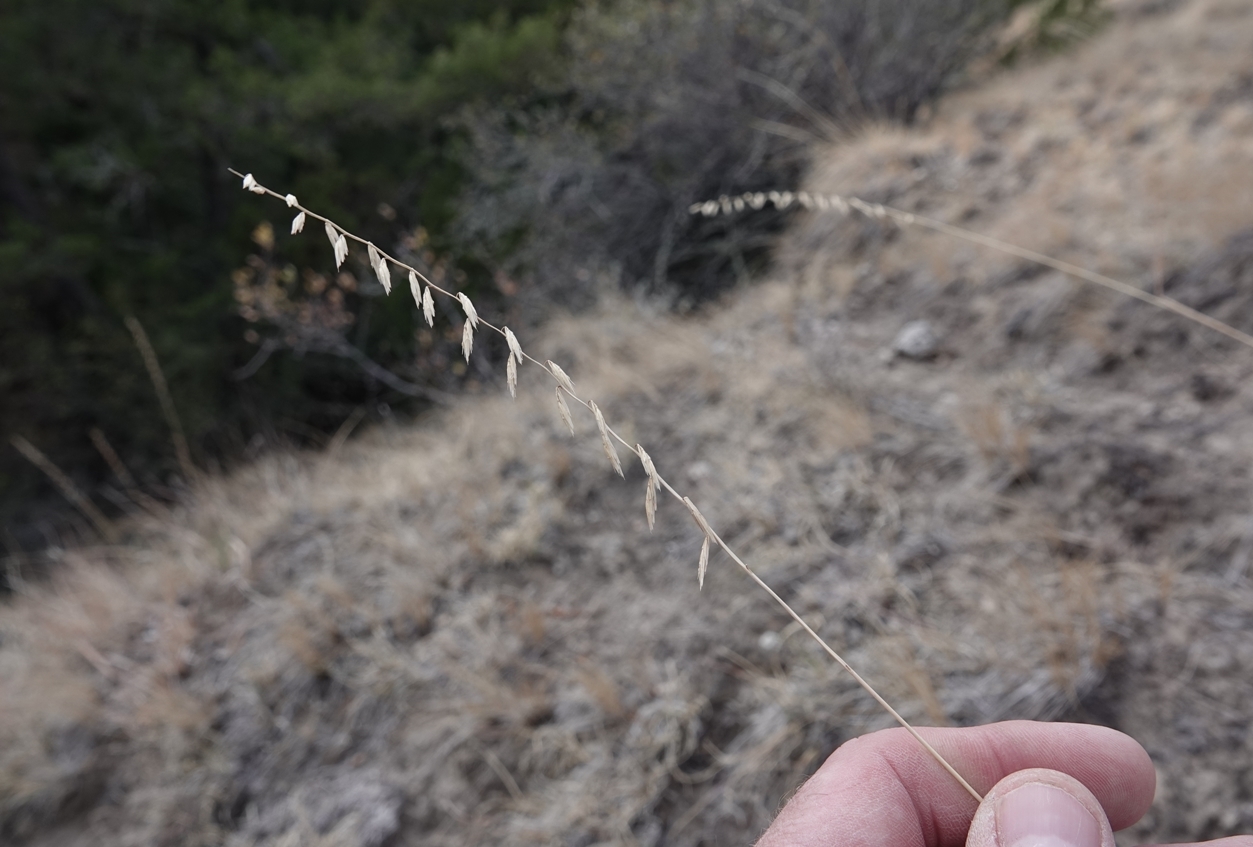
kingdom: Plantae
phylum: Tracheophyta
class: Liliopsida
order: Poales
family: Poaceae
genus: Bouteloua
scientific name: Bouteloua curtipendula
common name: Side-oats grama
